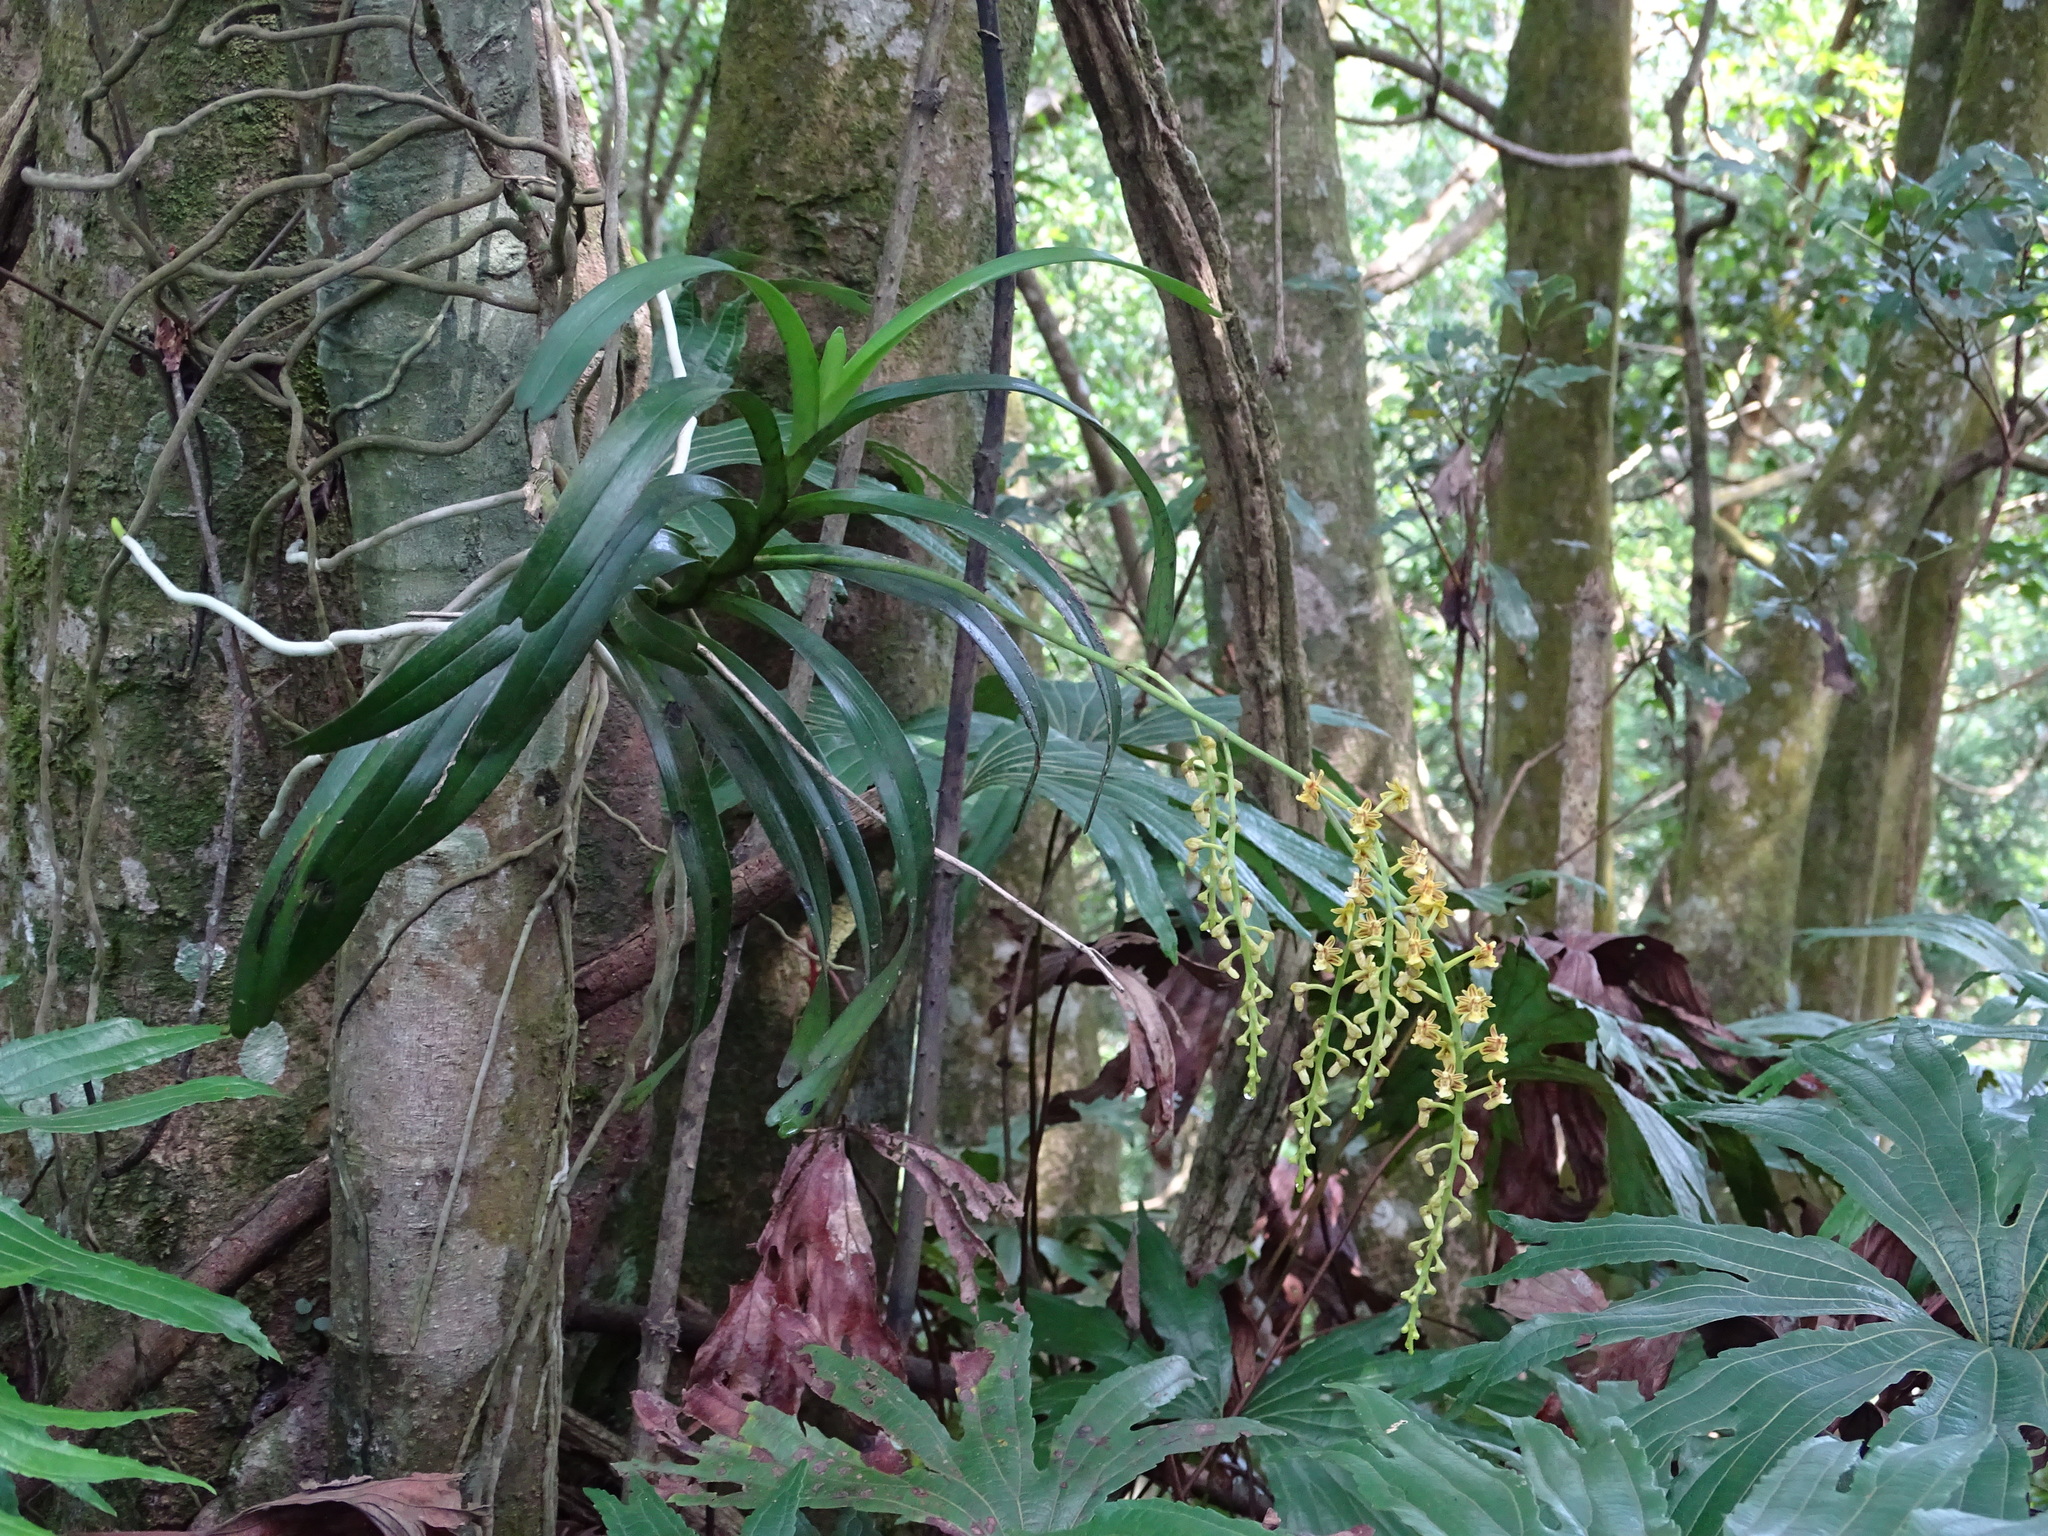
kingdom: Plantae
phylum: Tracheophyta
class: Liliopsida
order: Asparagales
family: Orchidaceae
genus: Cleisostoma
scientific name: Cleisostoma paniculatum
